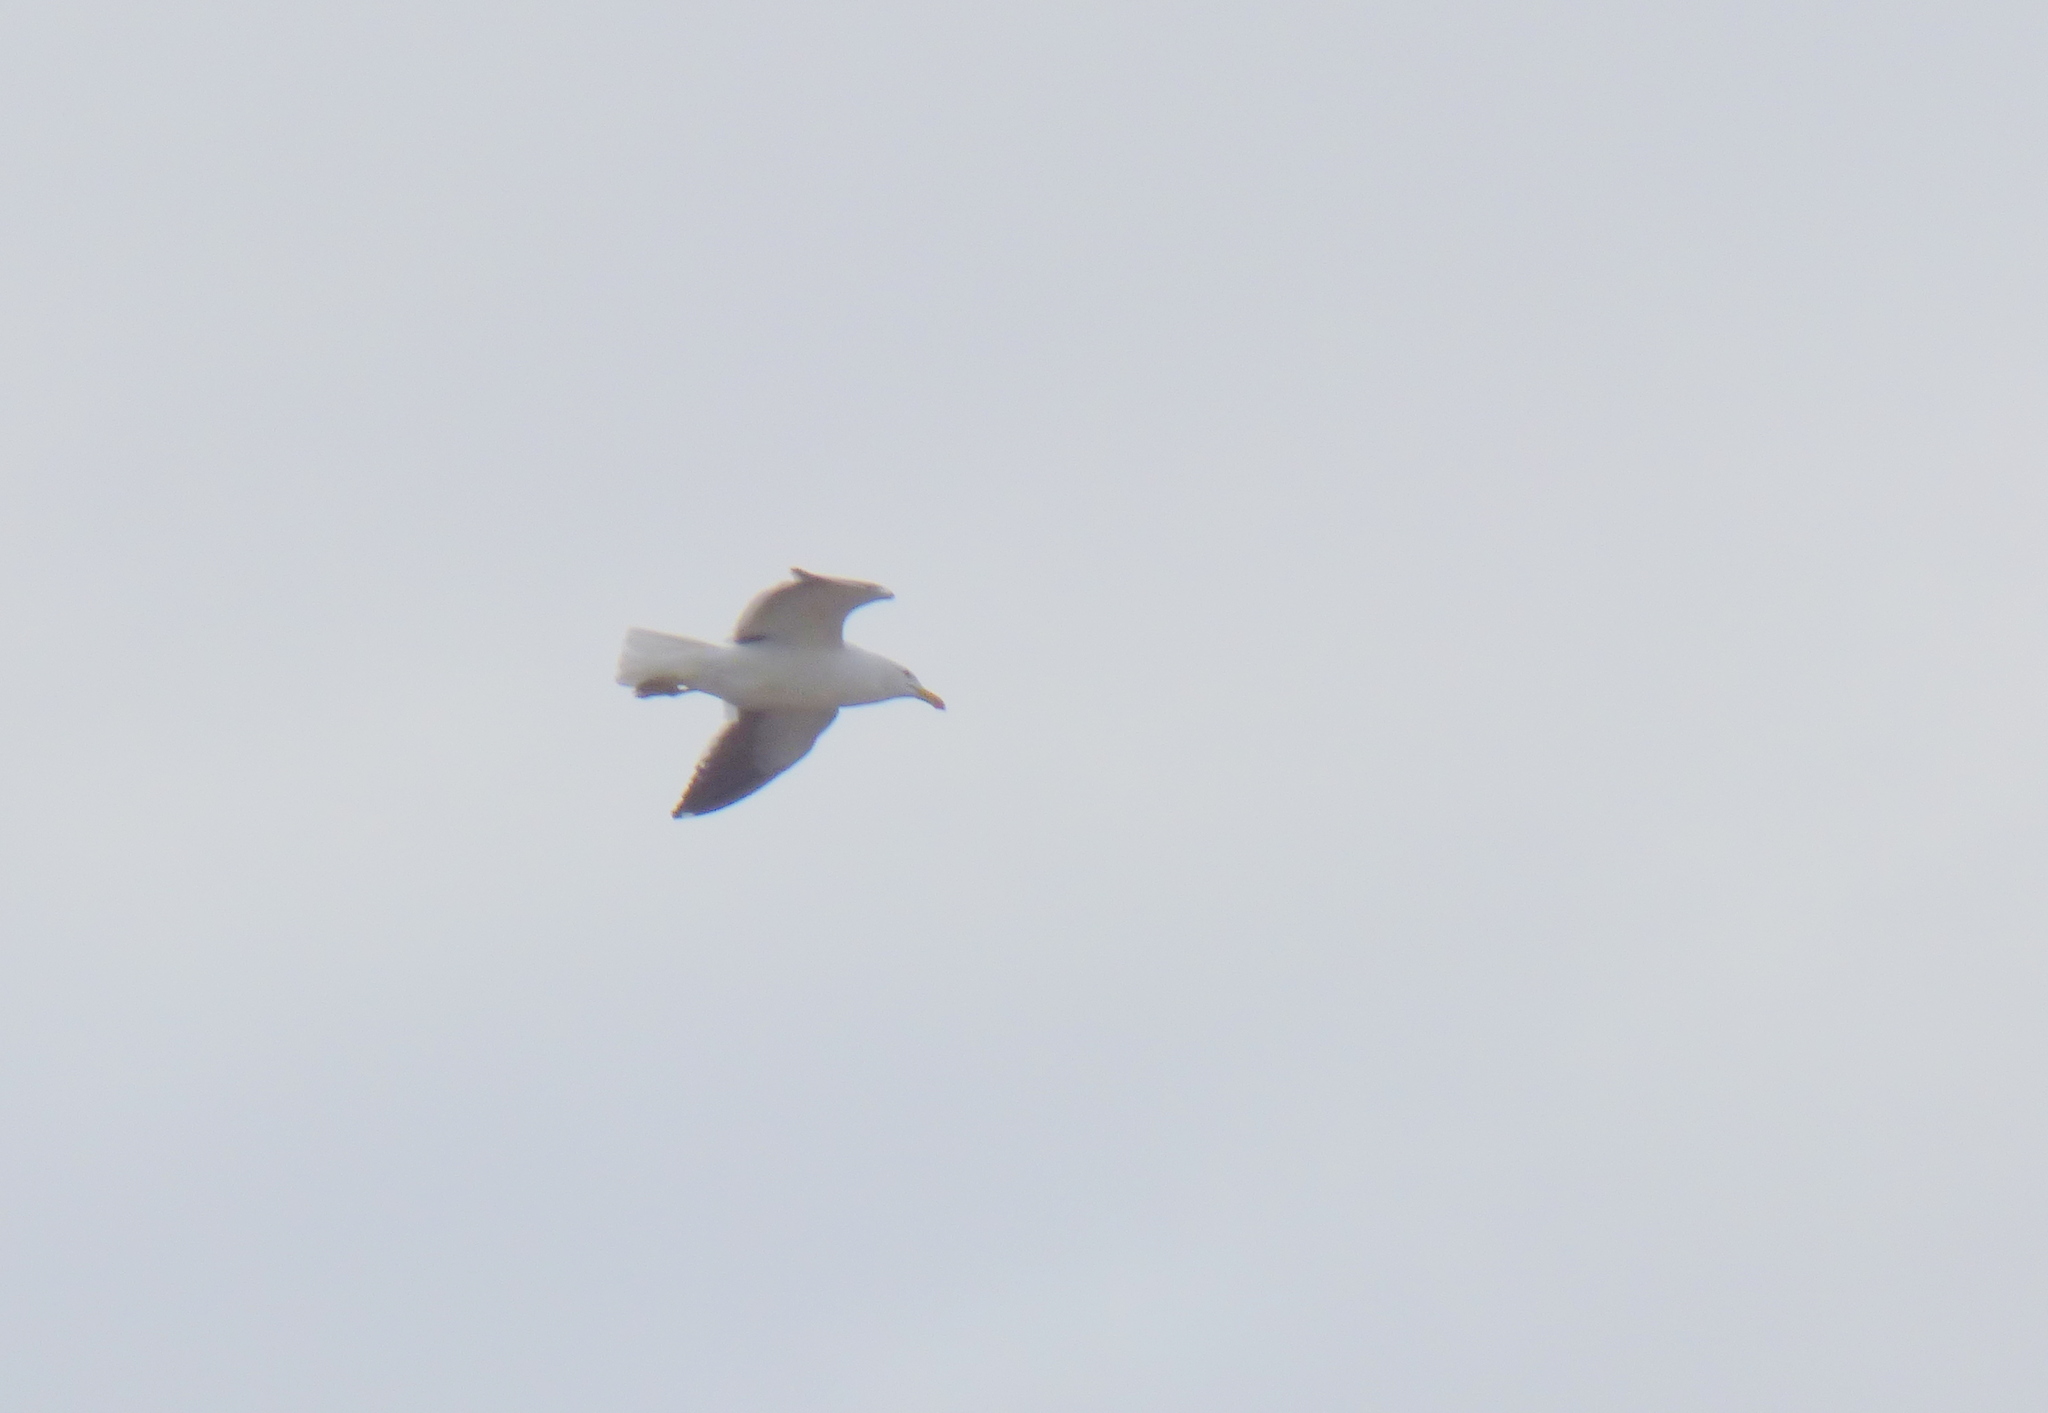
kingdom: Animalia
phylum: Chordata
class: Aves
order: Charadriiformes
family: Laridae
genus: Larus
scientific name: Larus dominicanus
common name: Kelp gull
